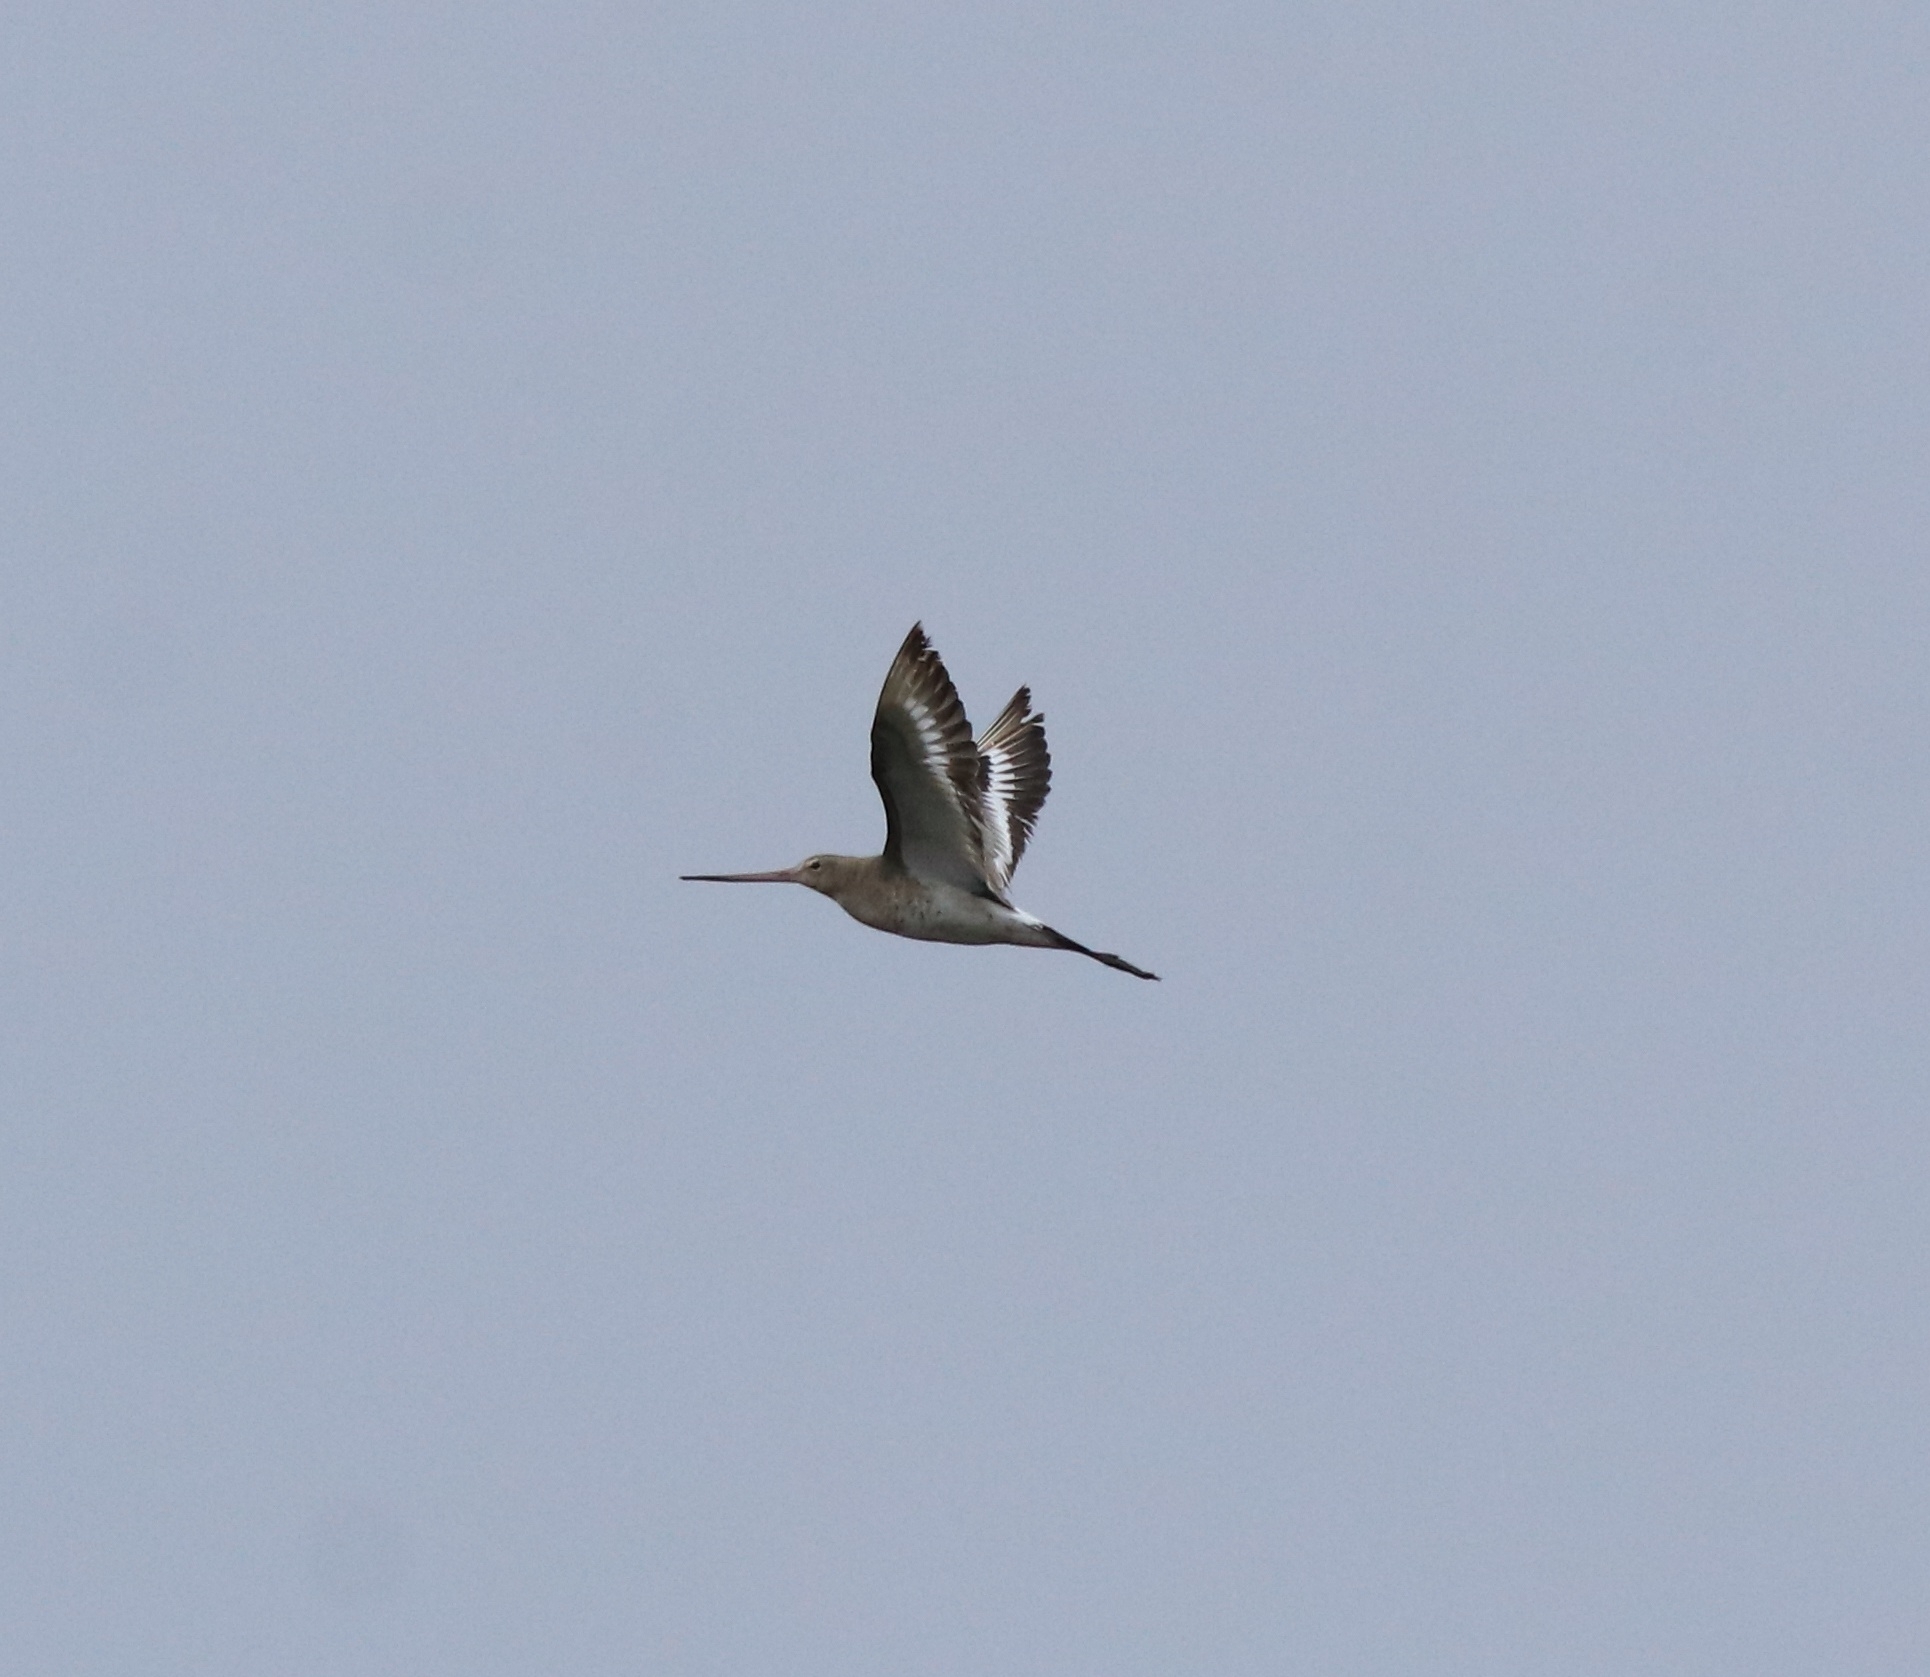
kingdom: Animalia
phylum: Chordata
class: Aves
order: Charadriiformes
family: Scolopacidae
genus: Limosa
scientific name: Limosa limosa
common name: Black-tailed godwit
